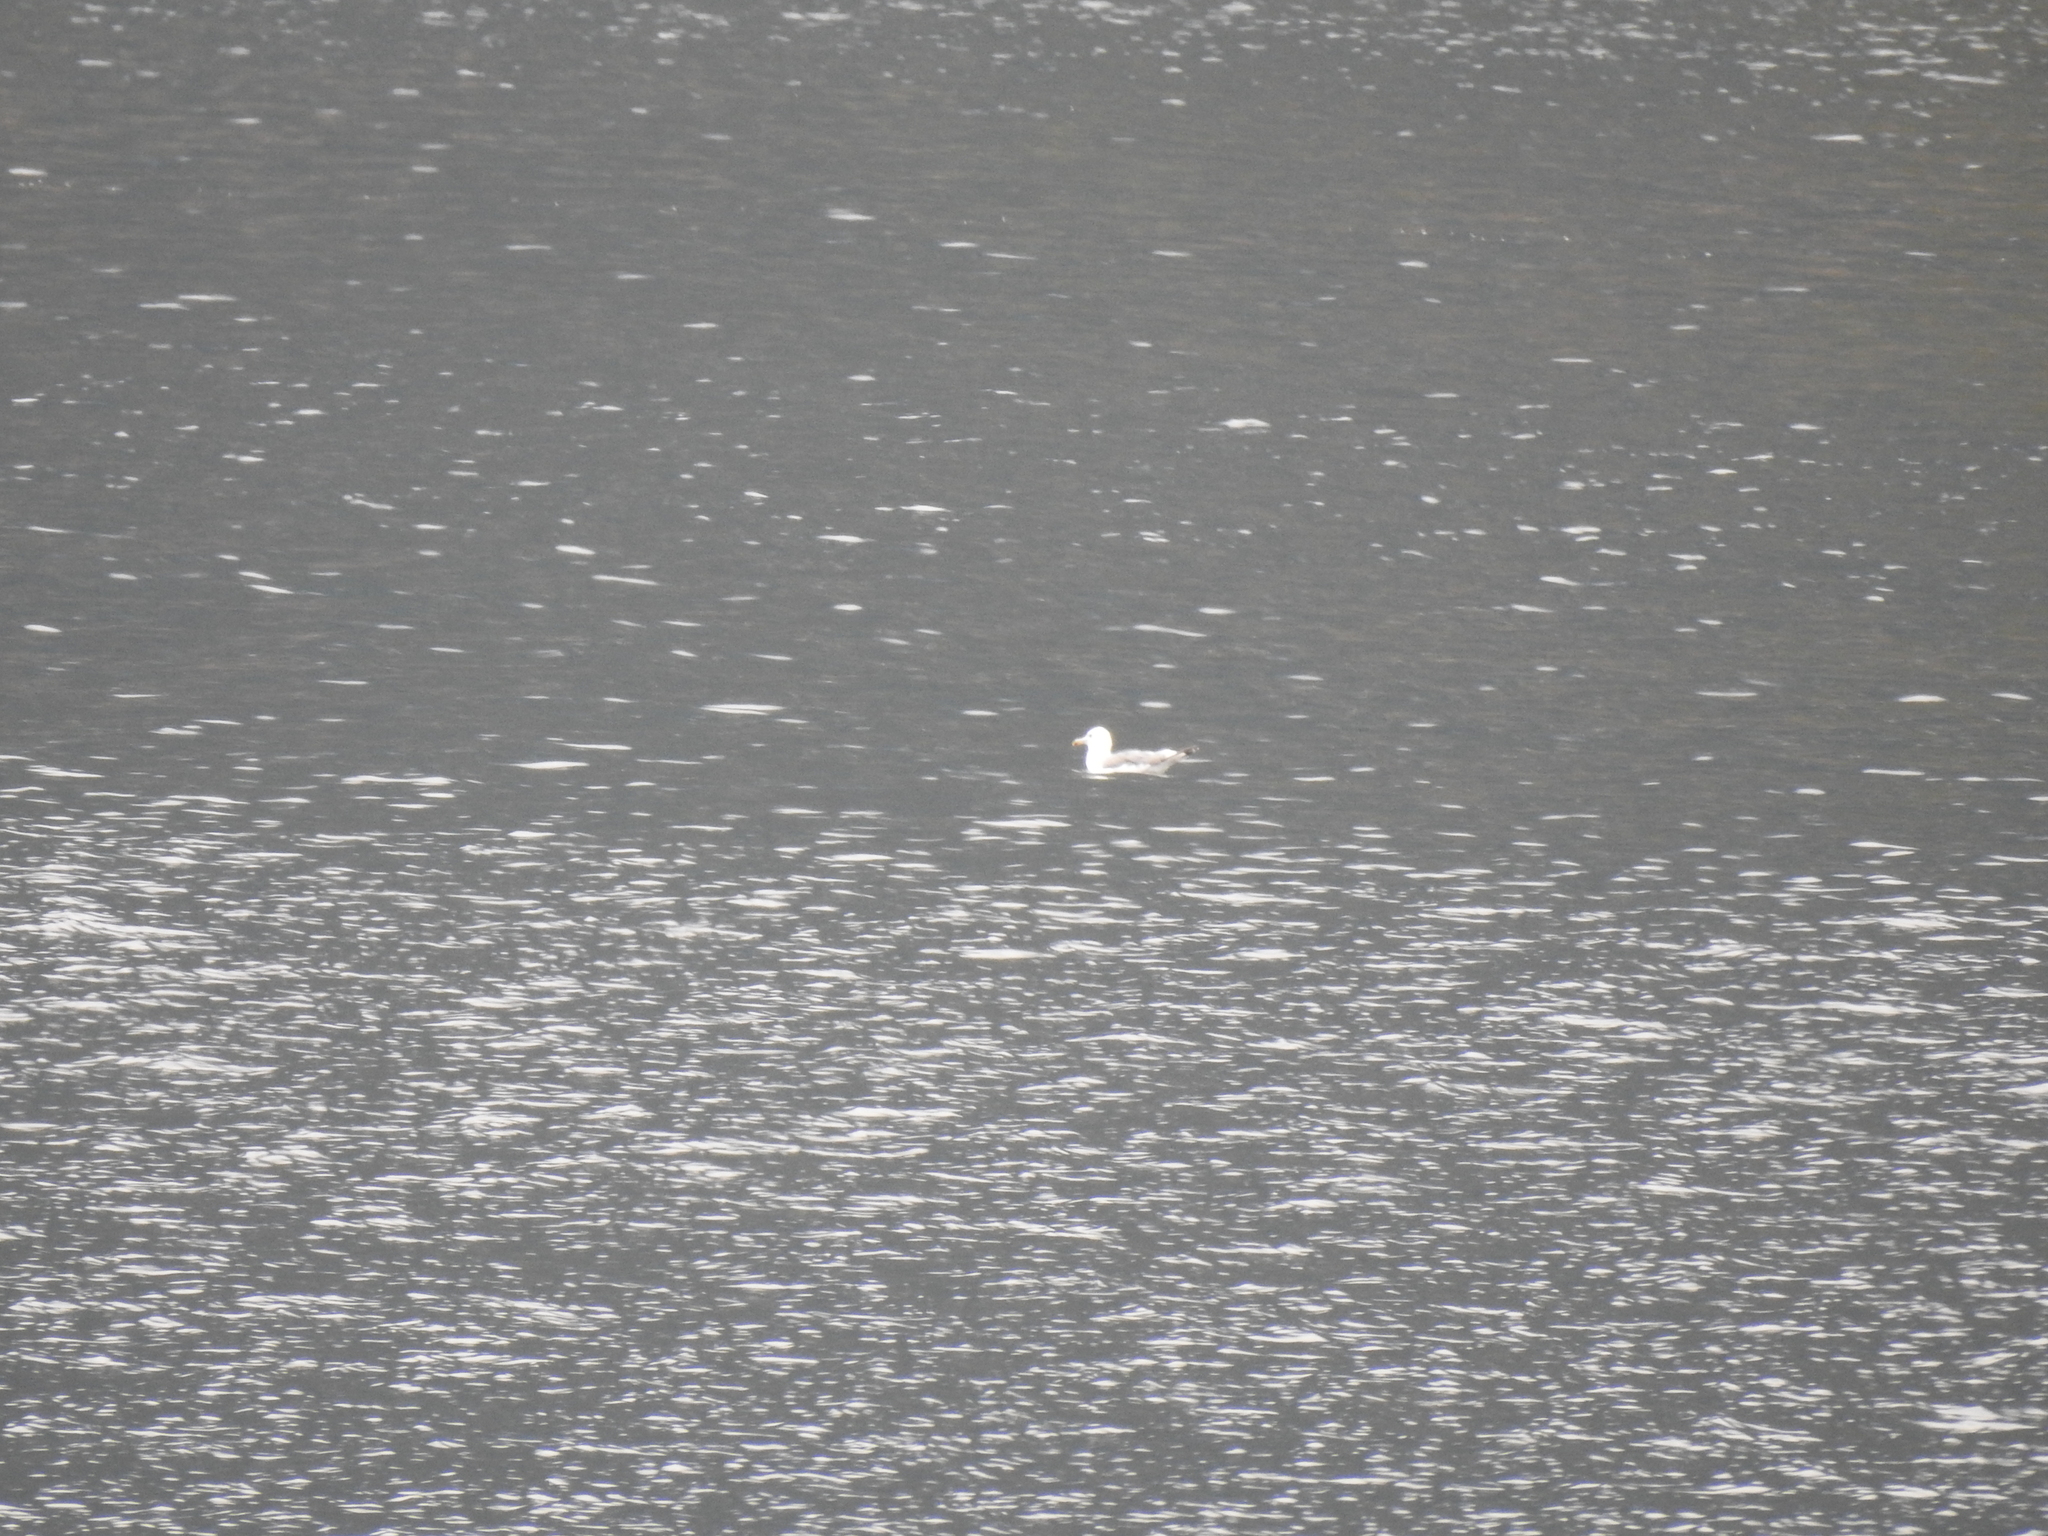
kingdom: Animalia
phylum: Chordata
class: Aves
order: Charadriiformes
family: Laridae
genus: Larus
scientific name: Larus
